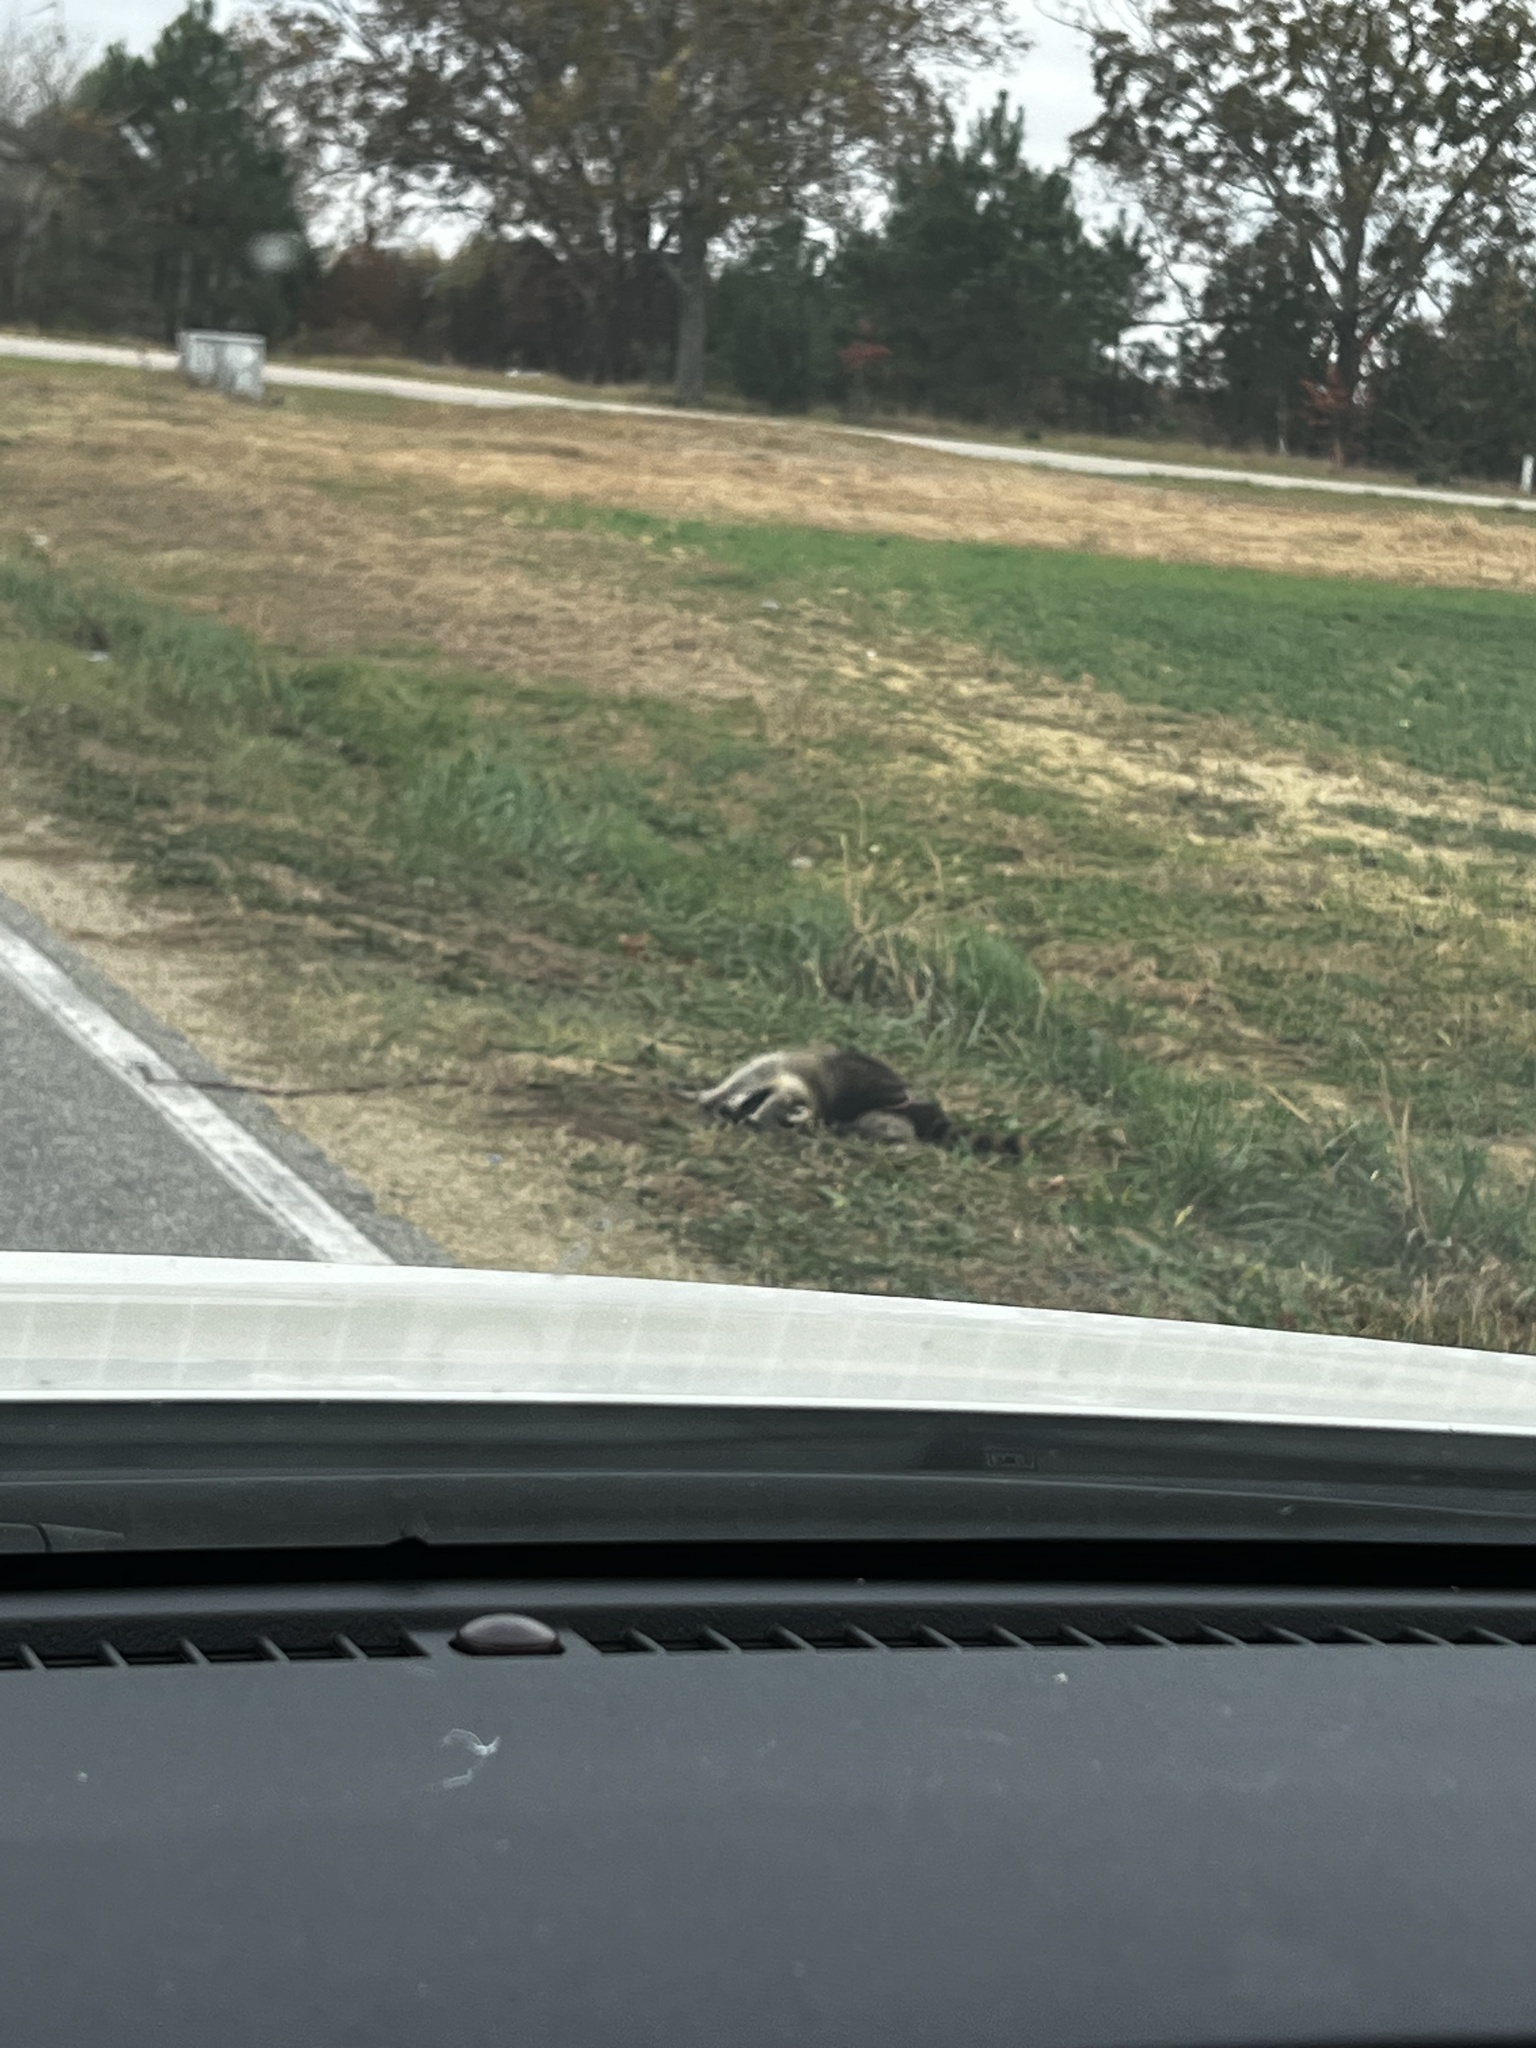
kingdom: Animalia
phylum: Chordata
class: Mammalia
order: Carnivora
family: Procyonidae
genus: Procyon
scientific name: Procyon lotor
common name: Raccoon
